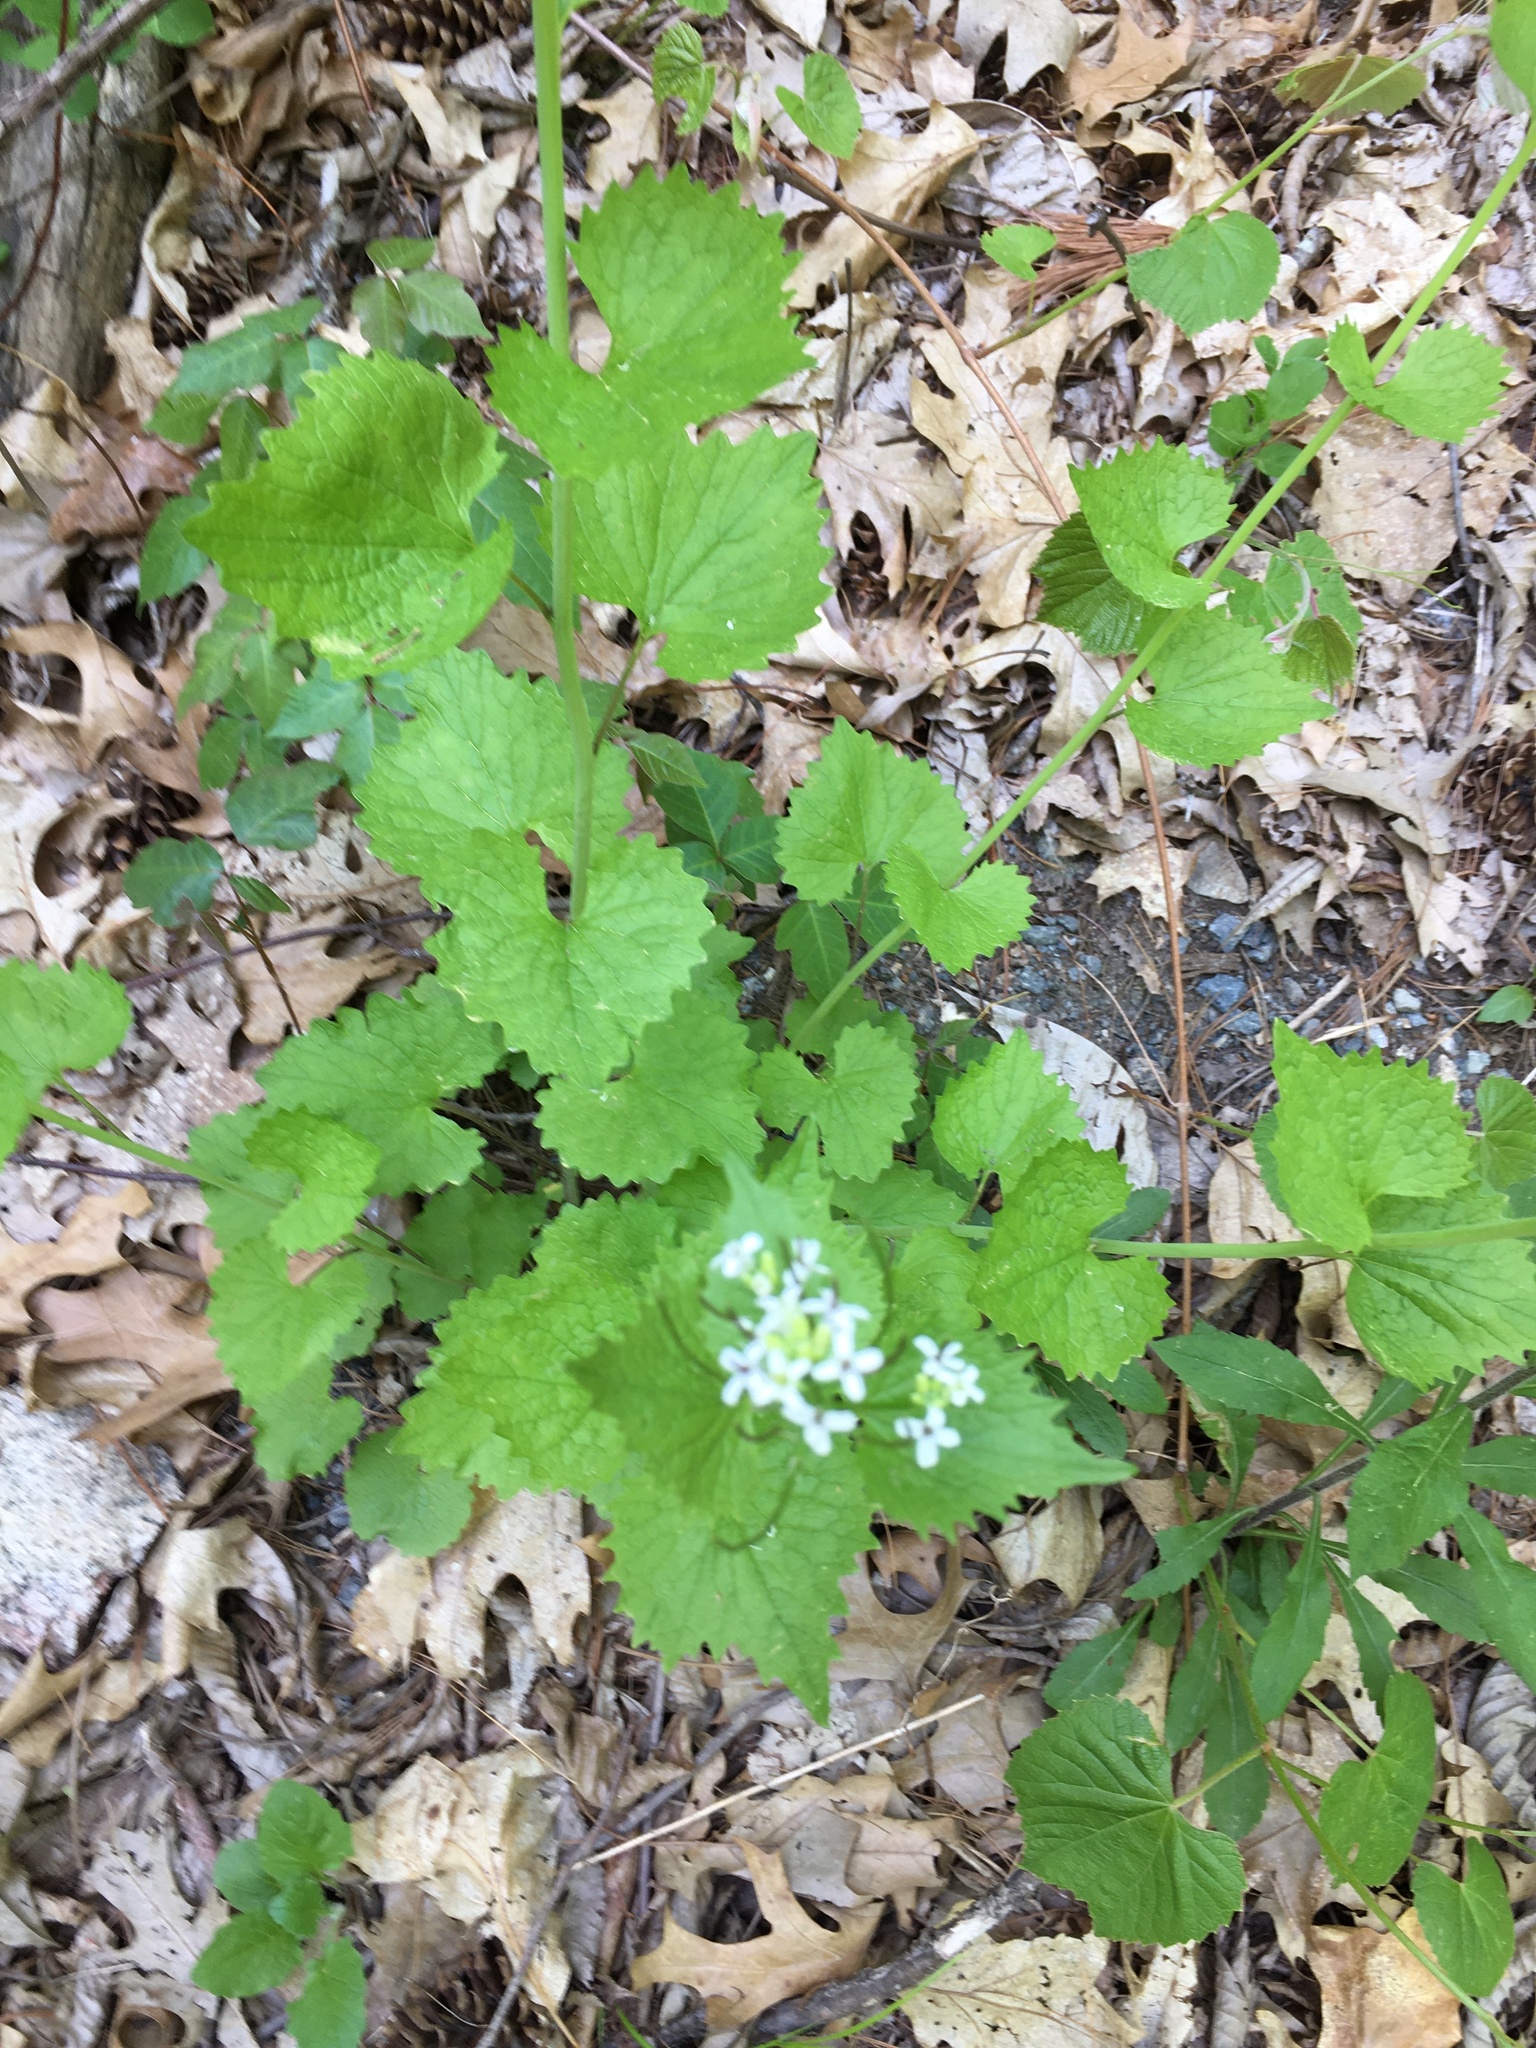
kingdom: Plantae
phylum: Tracheophyta
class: Magnoliopsida
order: Brassicales
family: Brassicaceae
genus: Alliaria
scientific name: Alliaria petiolata
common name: Garlic mustard
